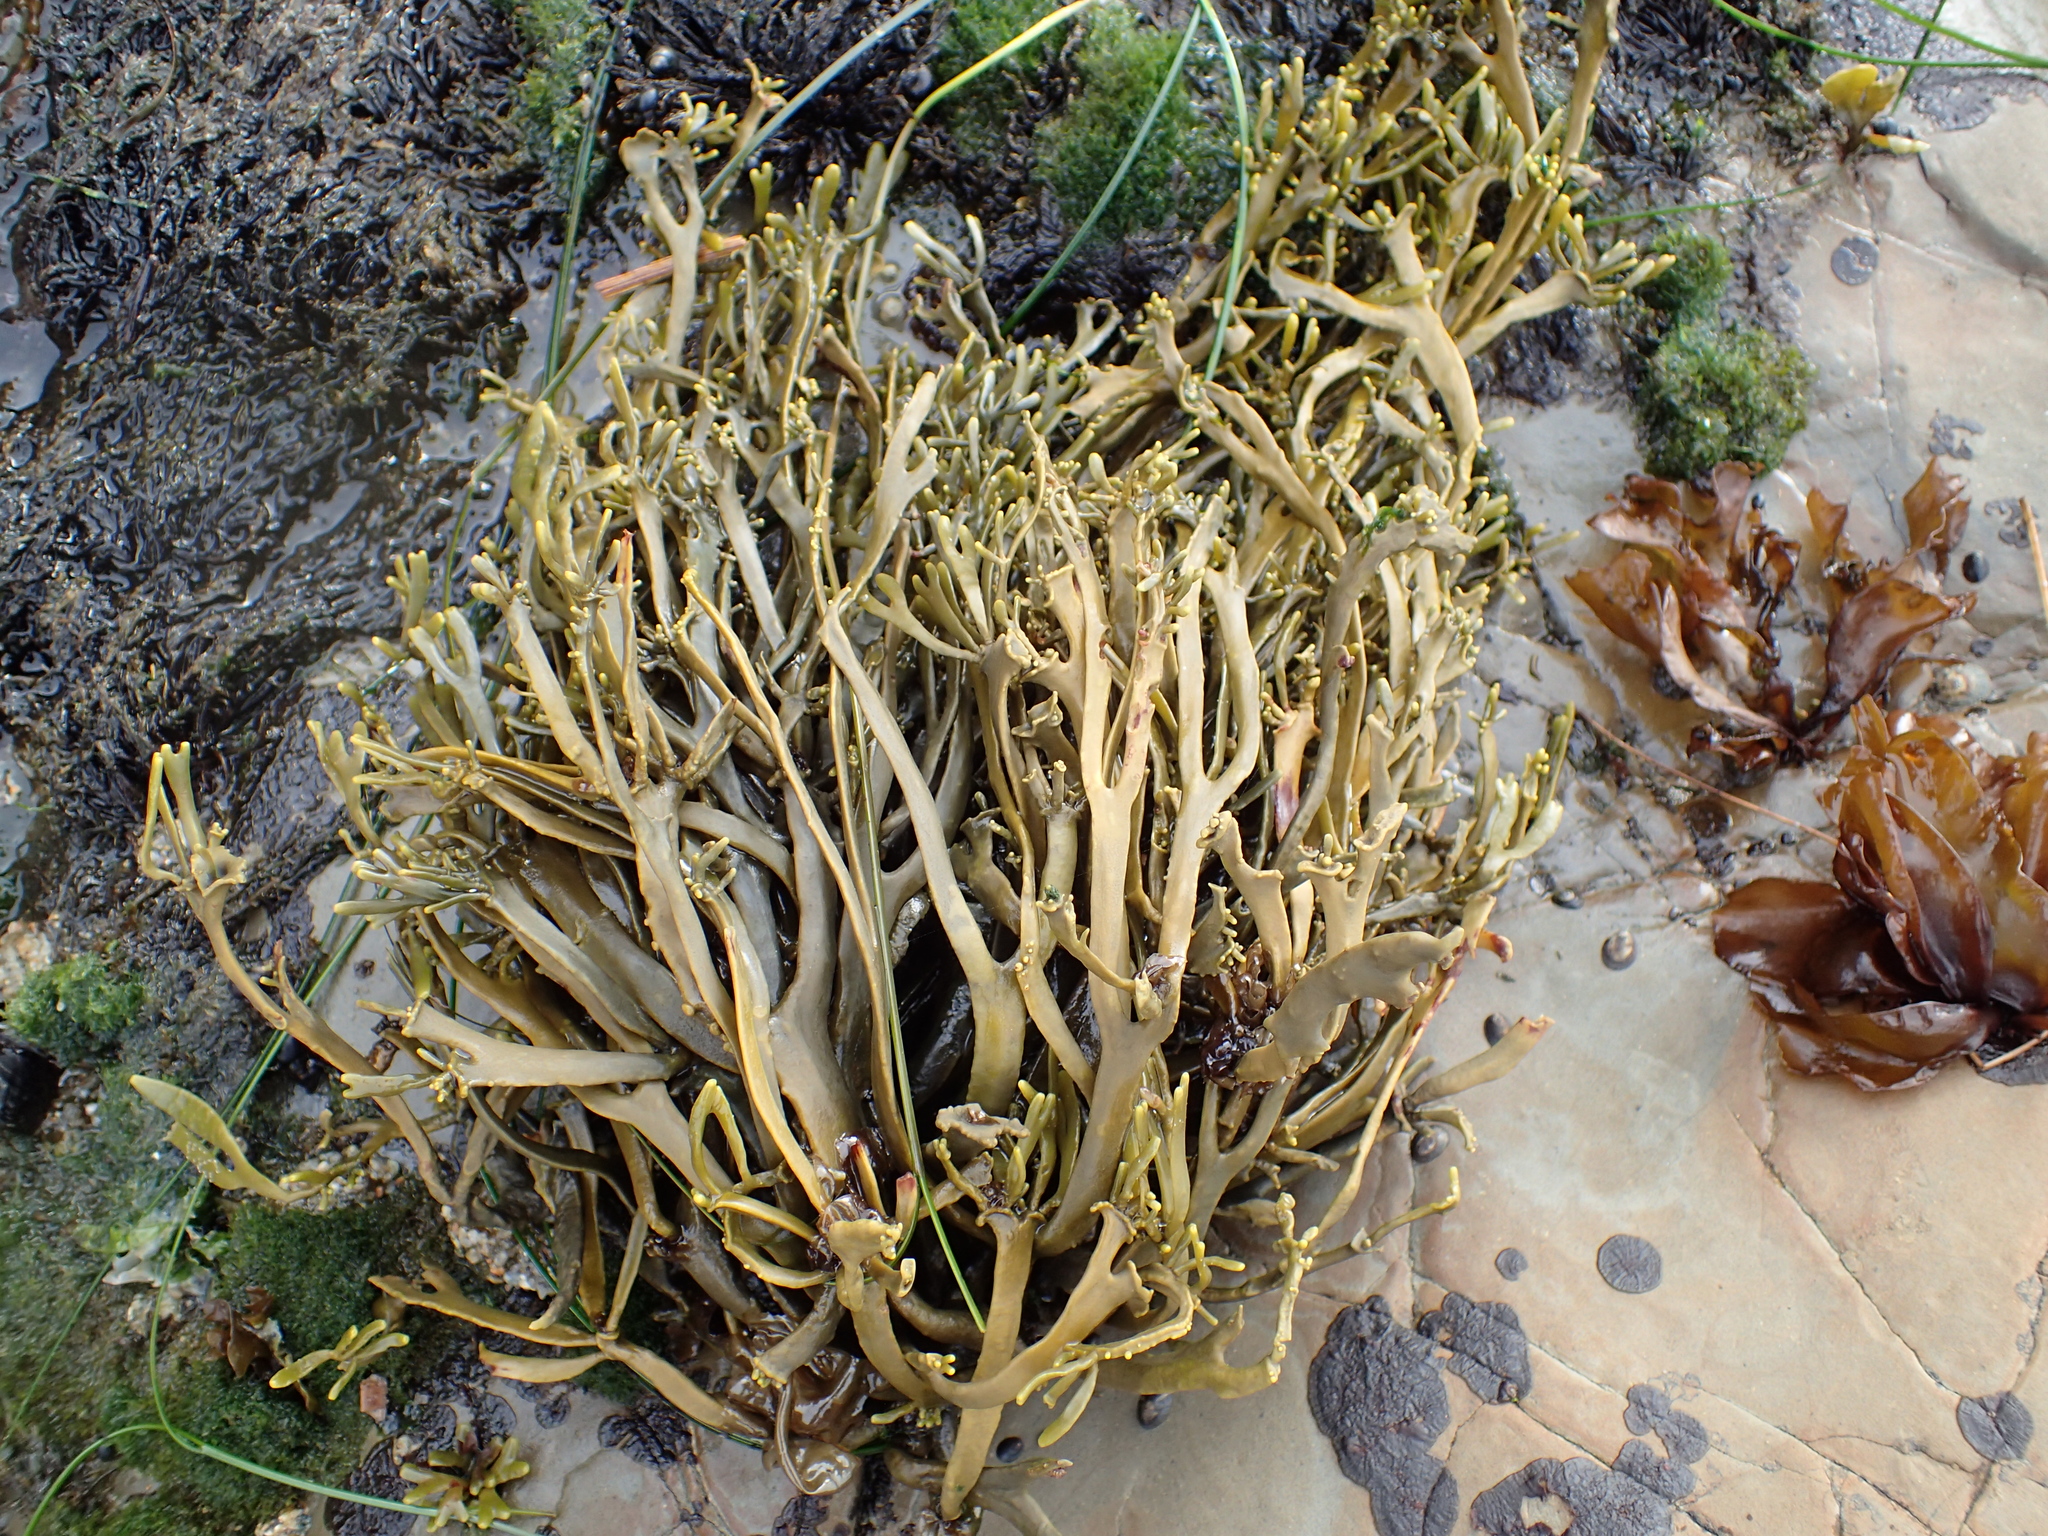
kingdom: Chromista
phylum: Ochrophyta
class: Phaeophyceae
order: Fucales
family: Fucaceae
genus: Silvetia
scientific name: Silvetia
